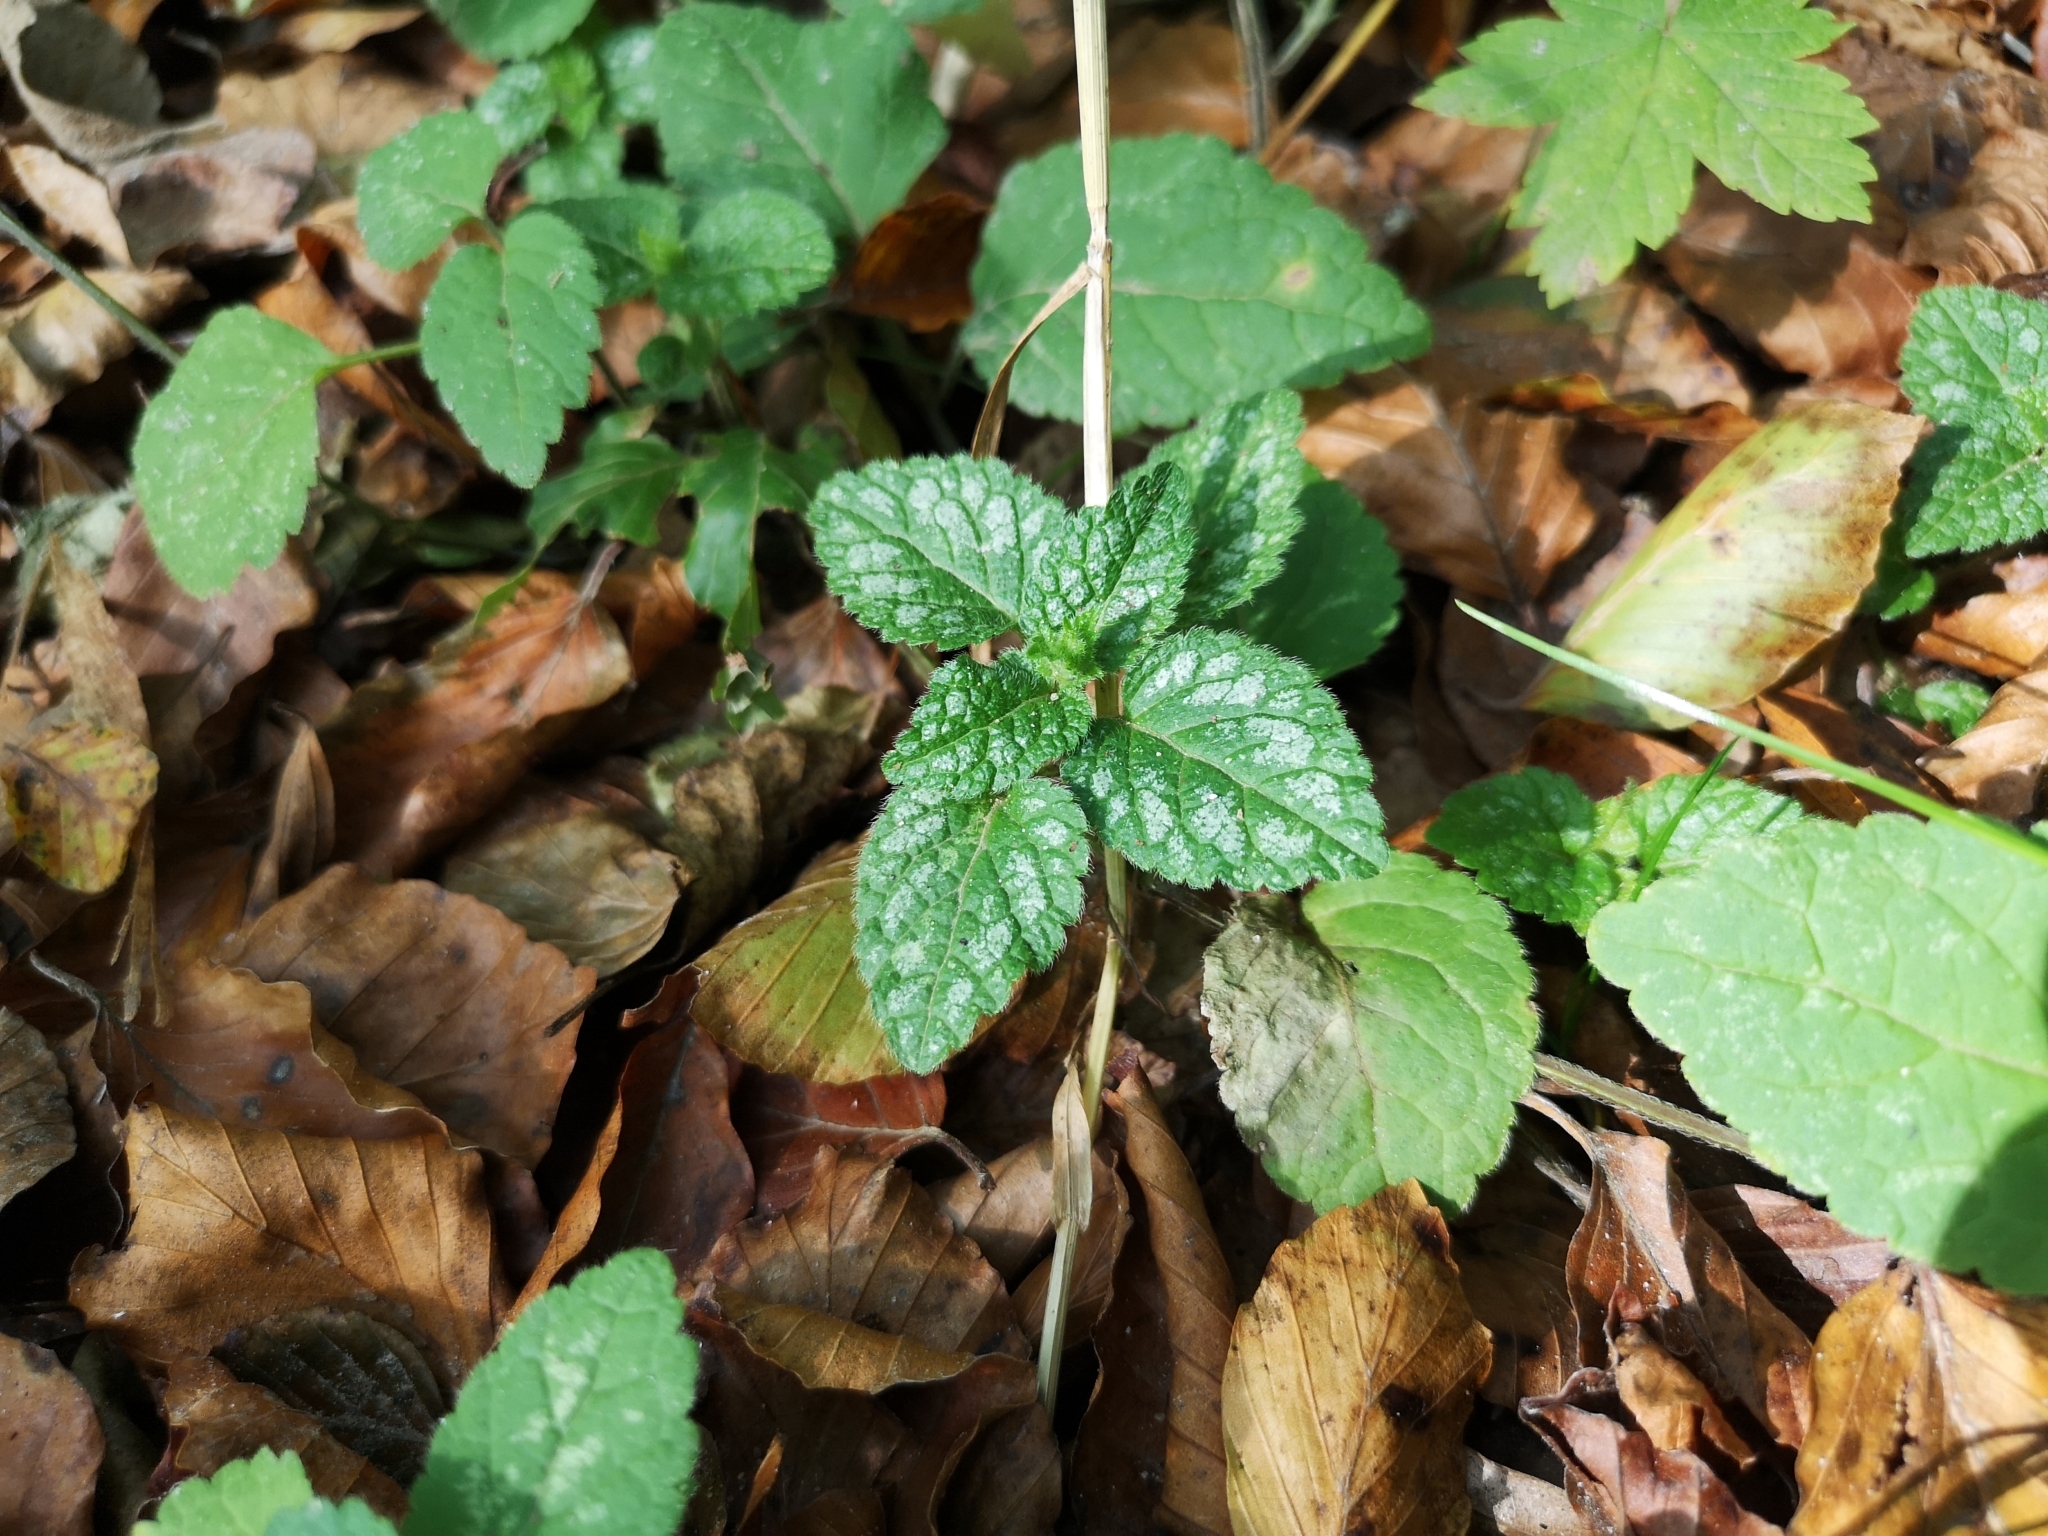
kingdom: Plantae
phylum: Tracheophyta
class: Magnoliopsida
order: Lamiales
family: Lamiaceae
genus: Lamium
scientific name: Lamium galeobdolon
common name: Yellow archangel
